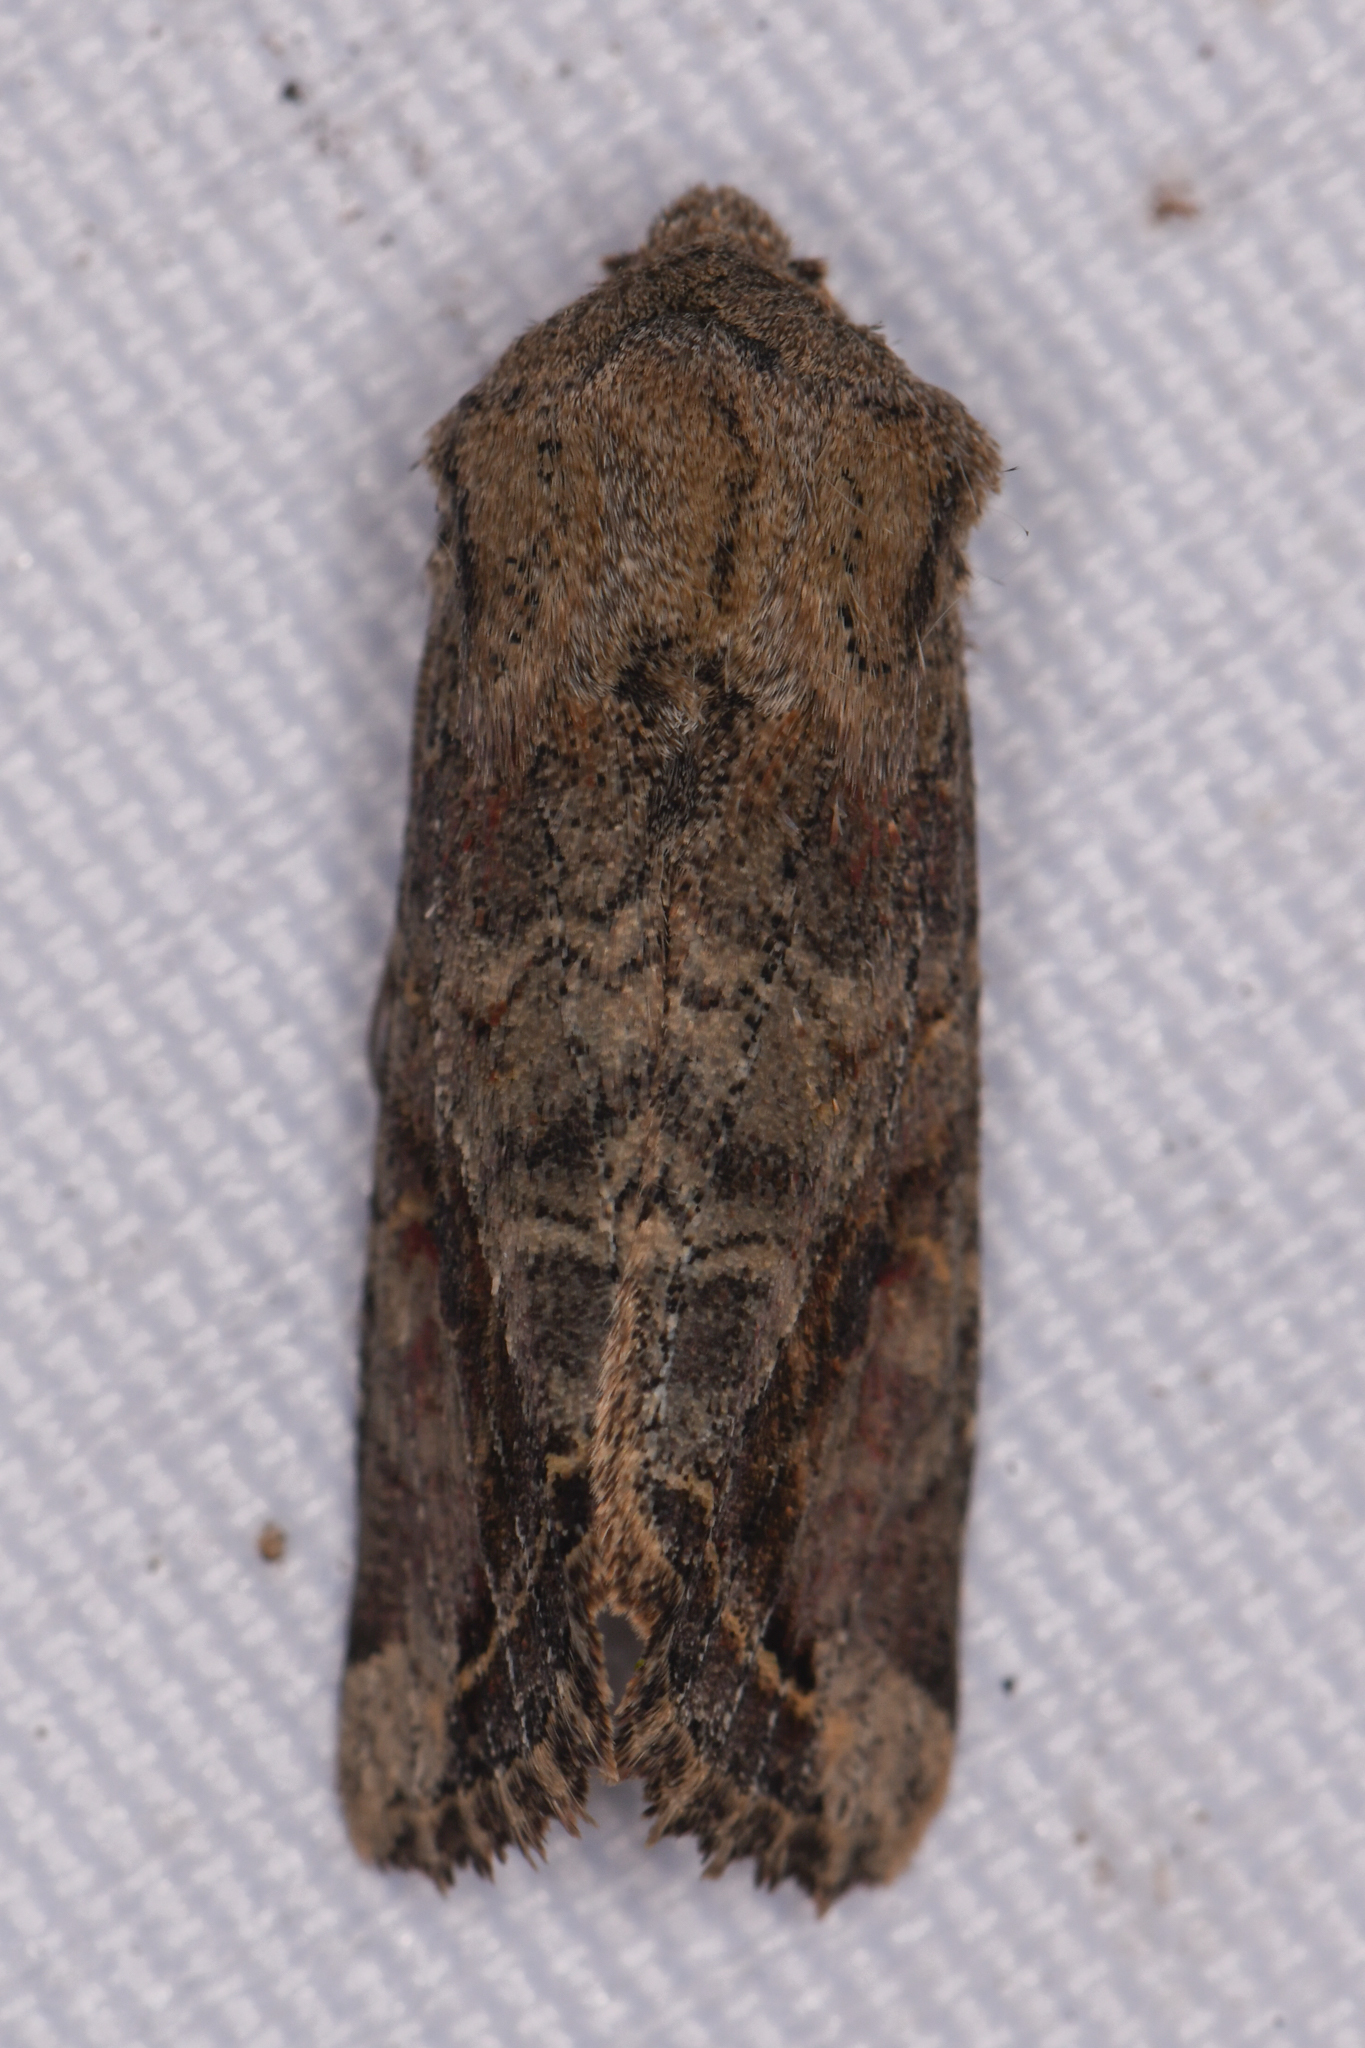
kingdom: Animalia
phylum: Arthropoda
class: Insecta
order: Lepidoptera
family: Noctuidae
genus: Egira
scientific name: Egira rubrica
